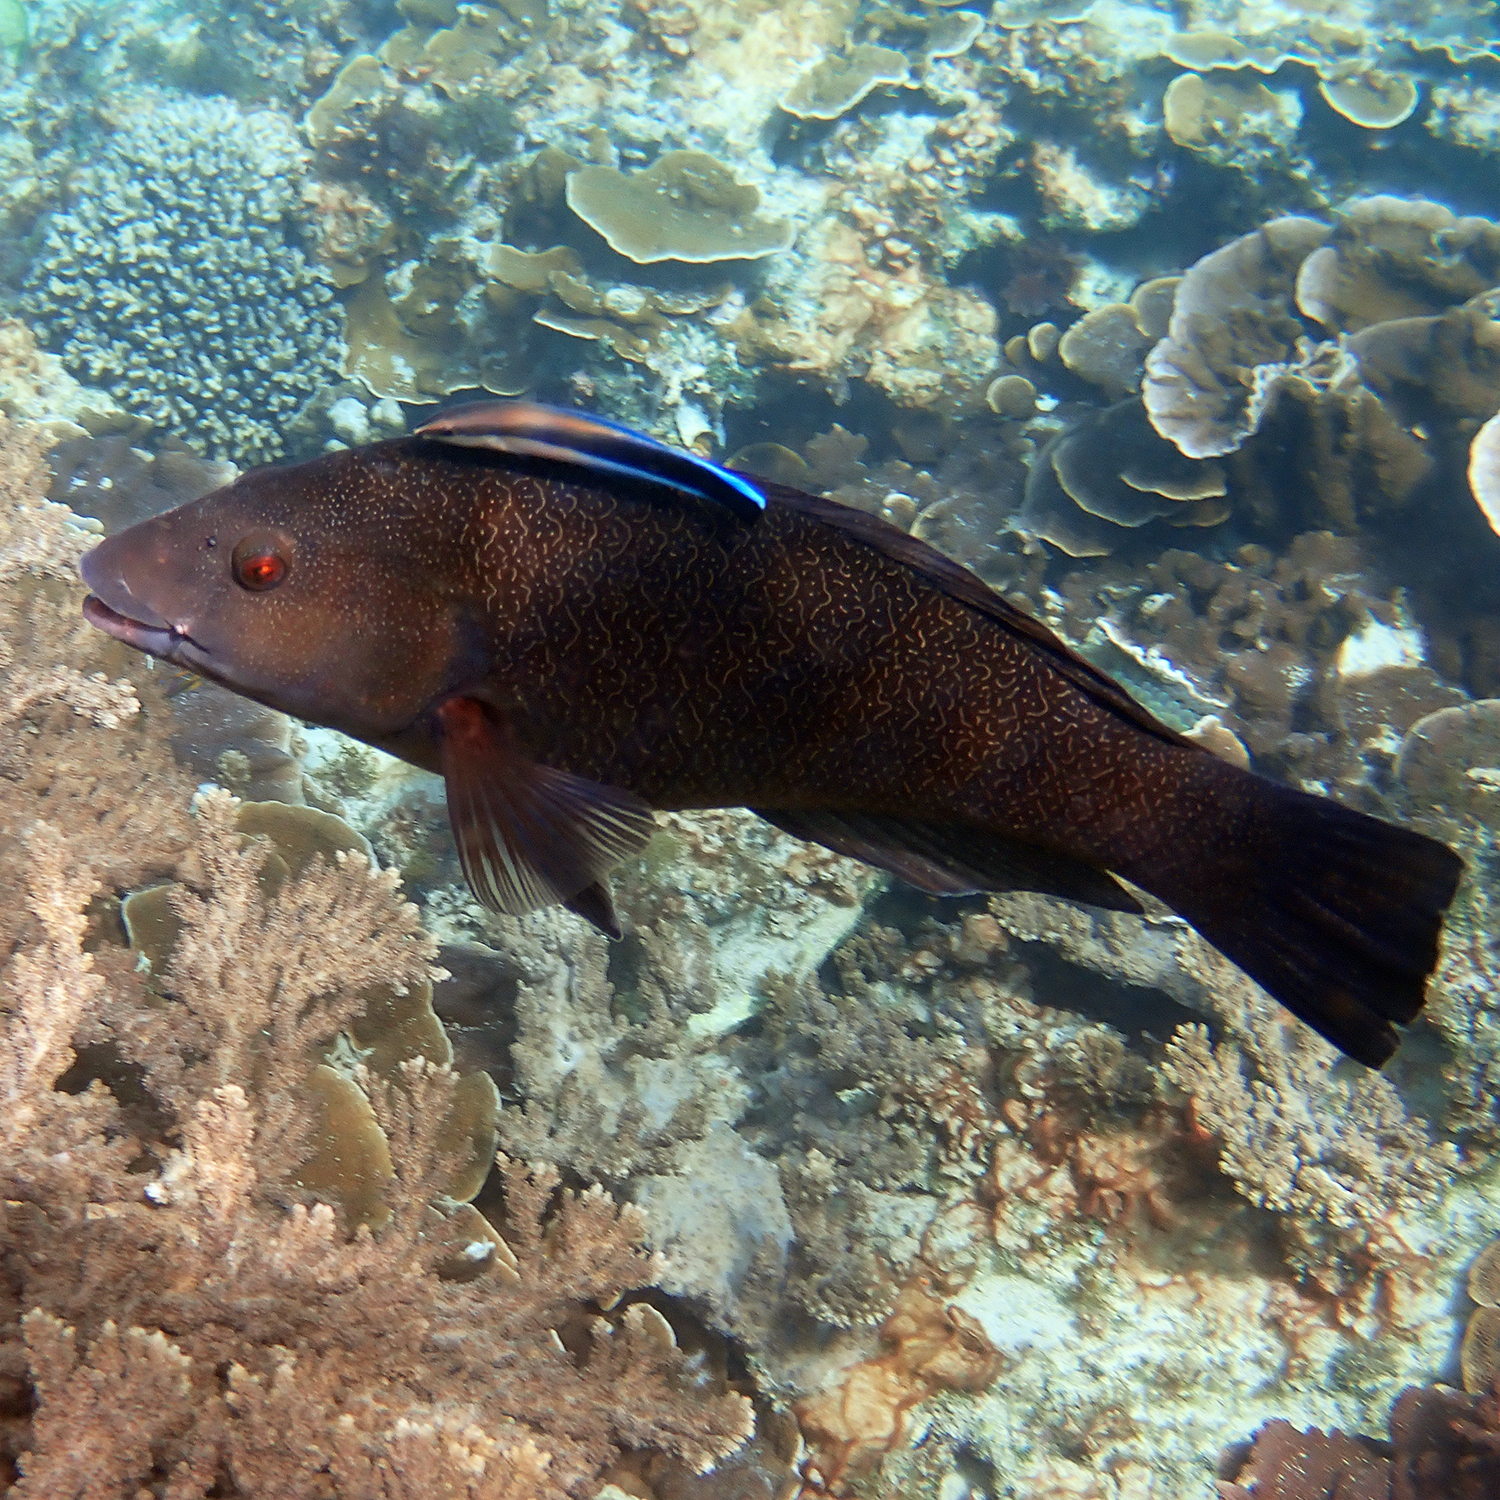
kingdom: Animalia
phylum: Chordata
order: Perciformes
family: Labridae
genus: Labroides
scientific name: Labroides dimidiatus
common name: Blue diesel wrasse
